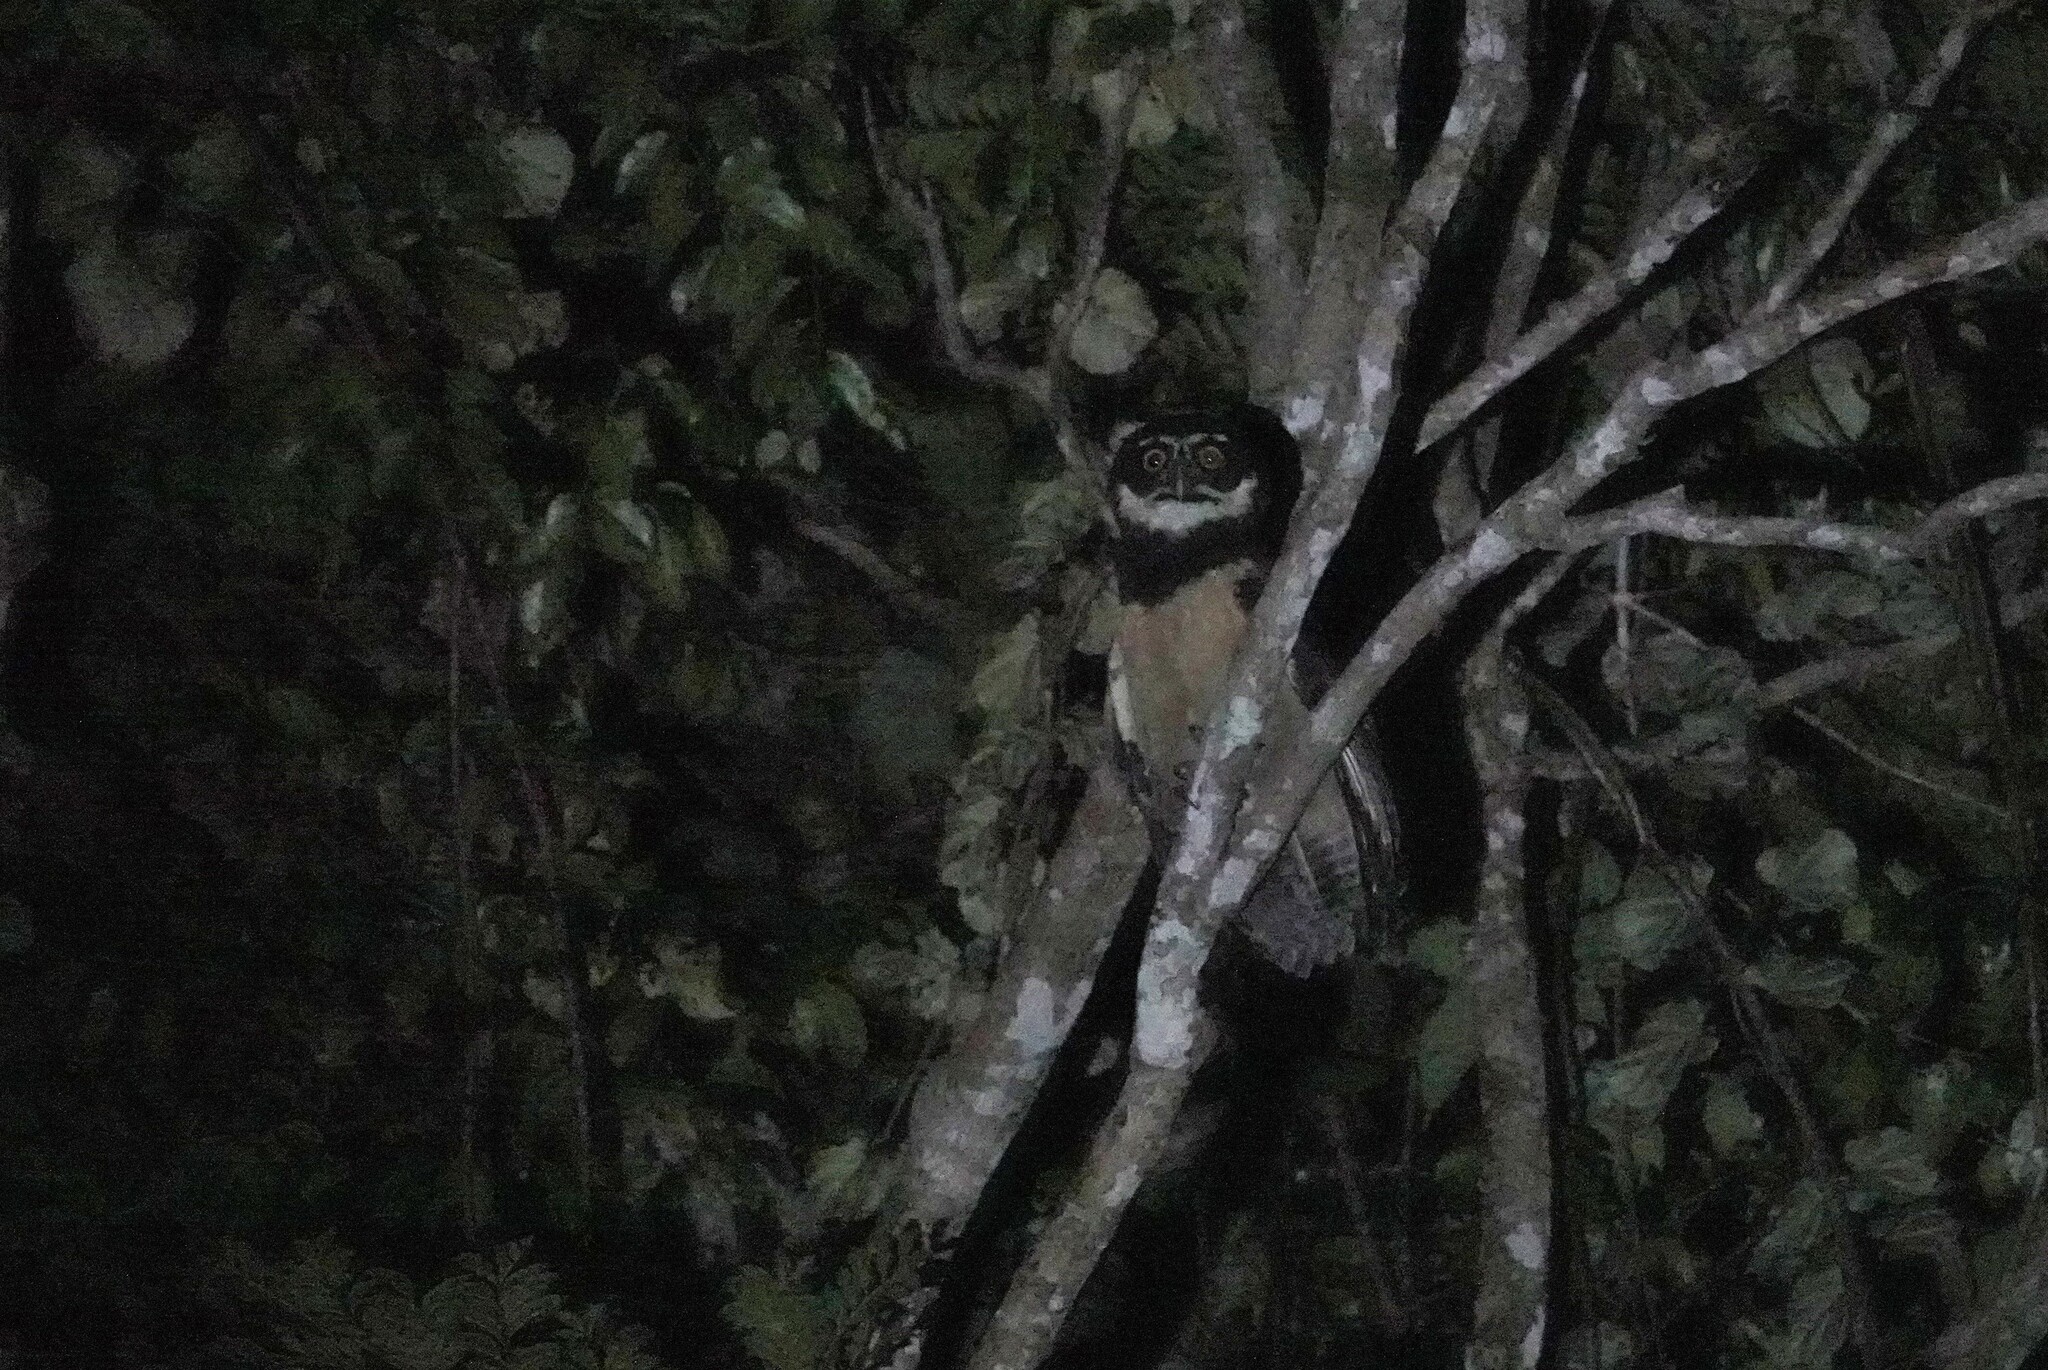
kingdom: Animalia
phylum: Chordata
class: Aves
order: Strigiformes
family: Strigidae
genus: Pulsatrix
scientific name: Pulsatrix perspicillata
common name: Spectacled owl
